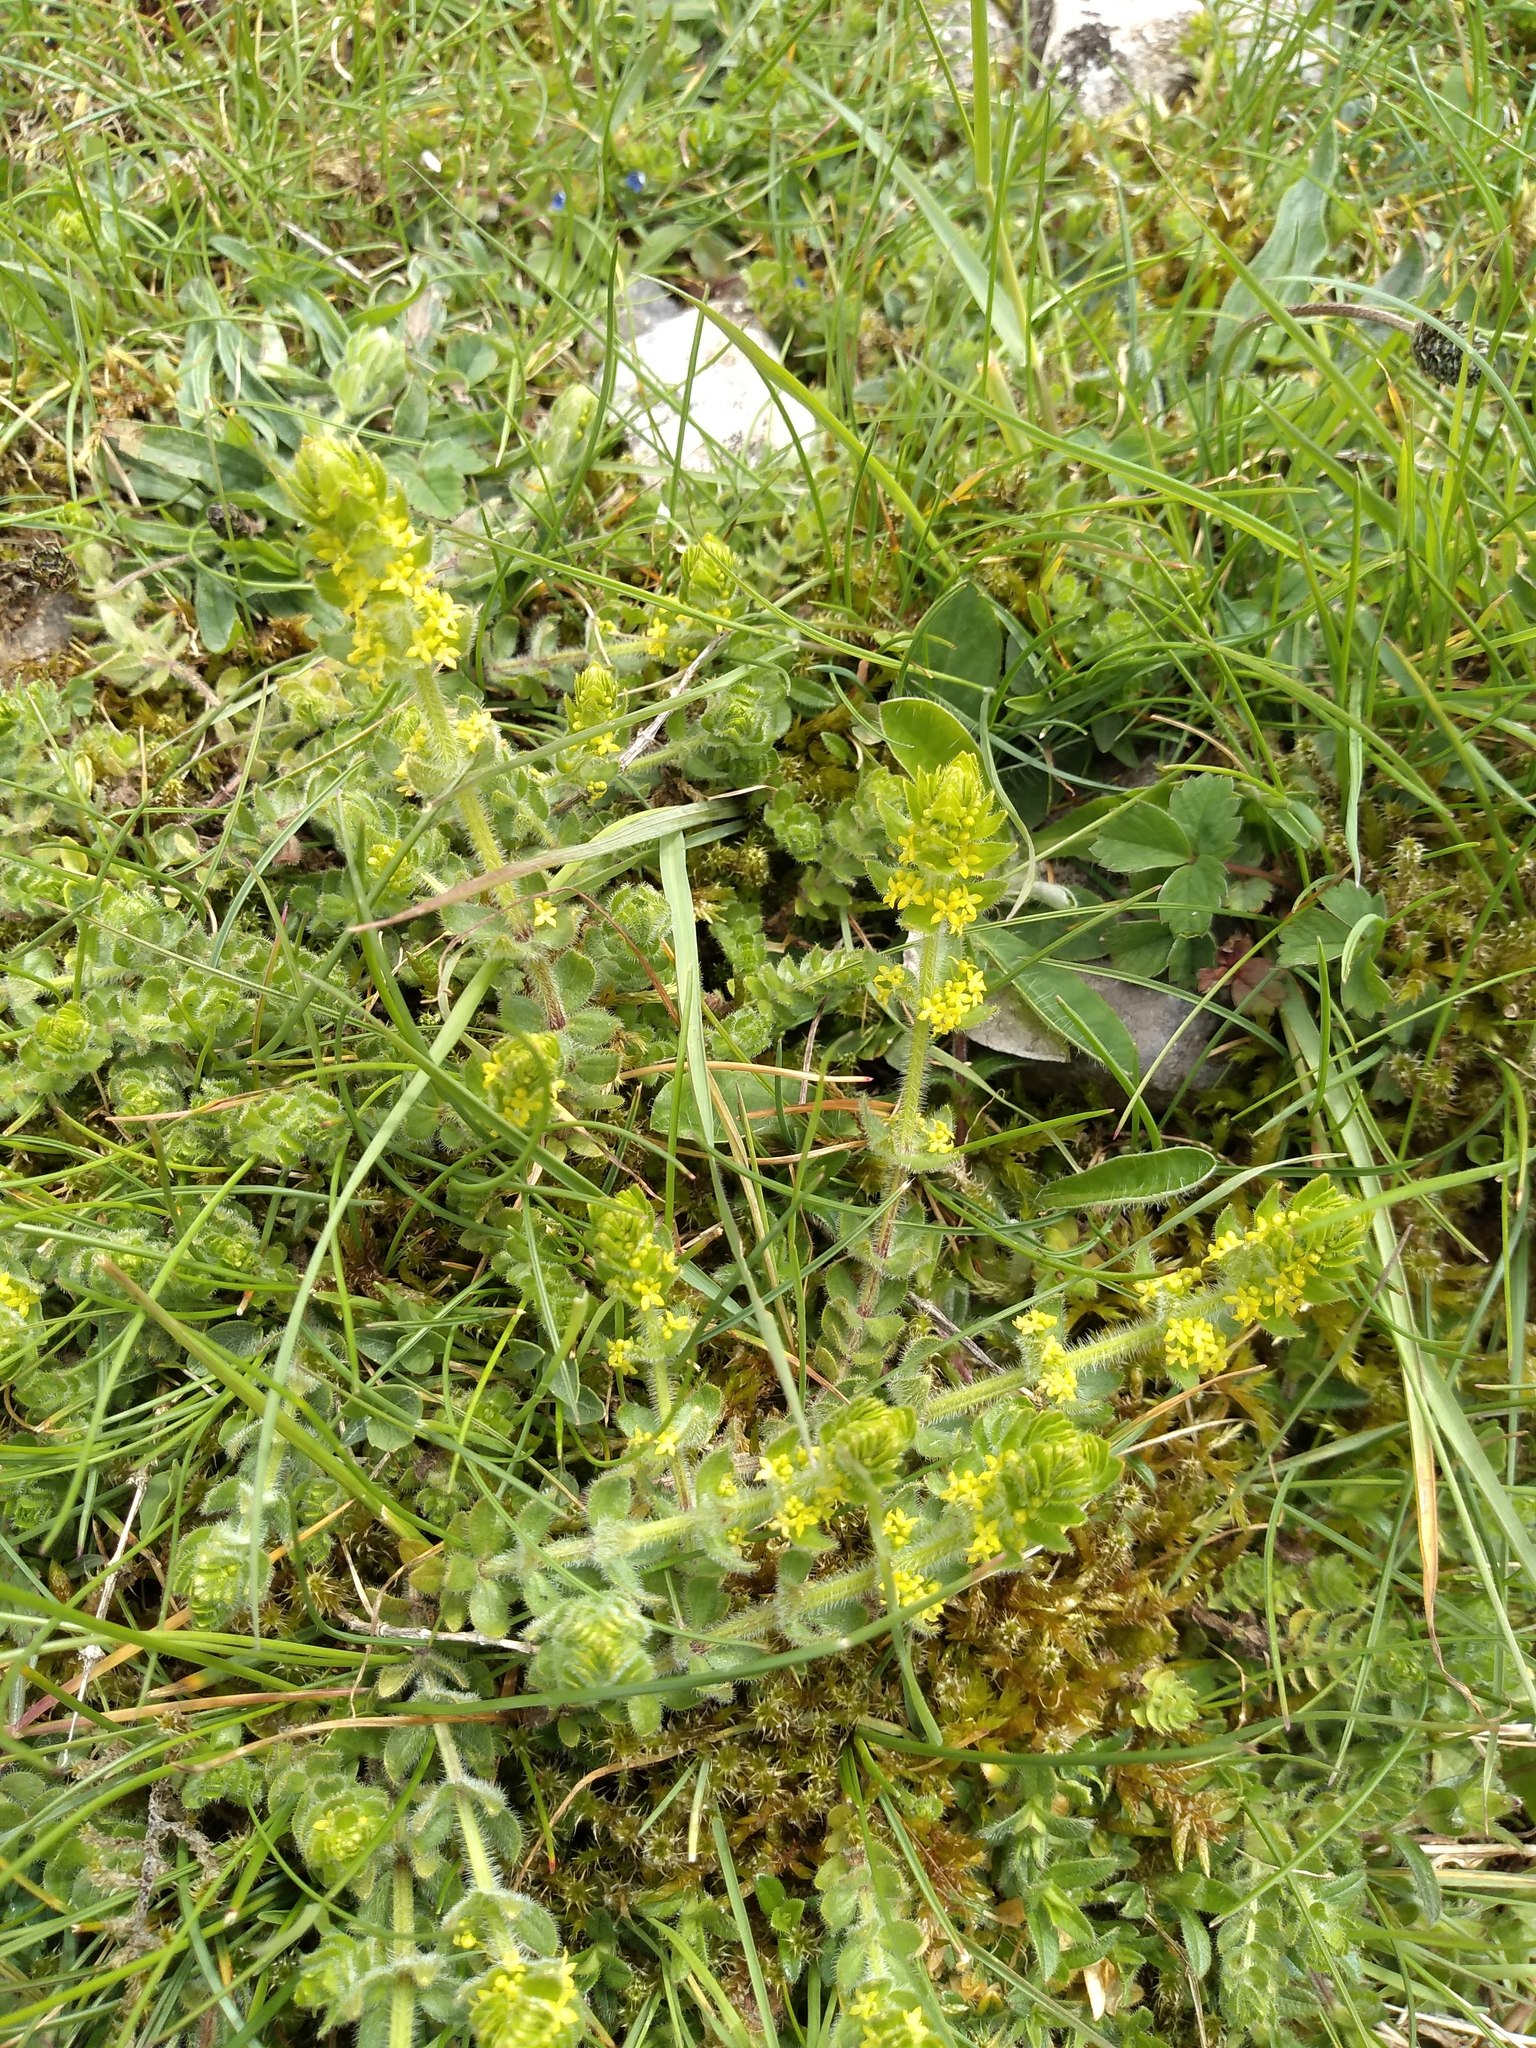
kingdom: Plantae
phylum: Tracheophyta
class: Magnoliopsida
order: Gentianales
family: Rubiaceae
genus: Cruciata
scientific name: Cruciata laevipes
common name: Crosswort
